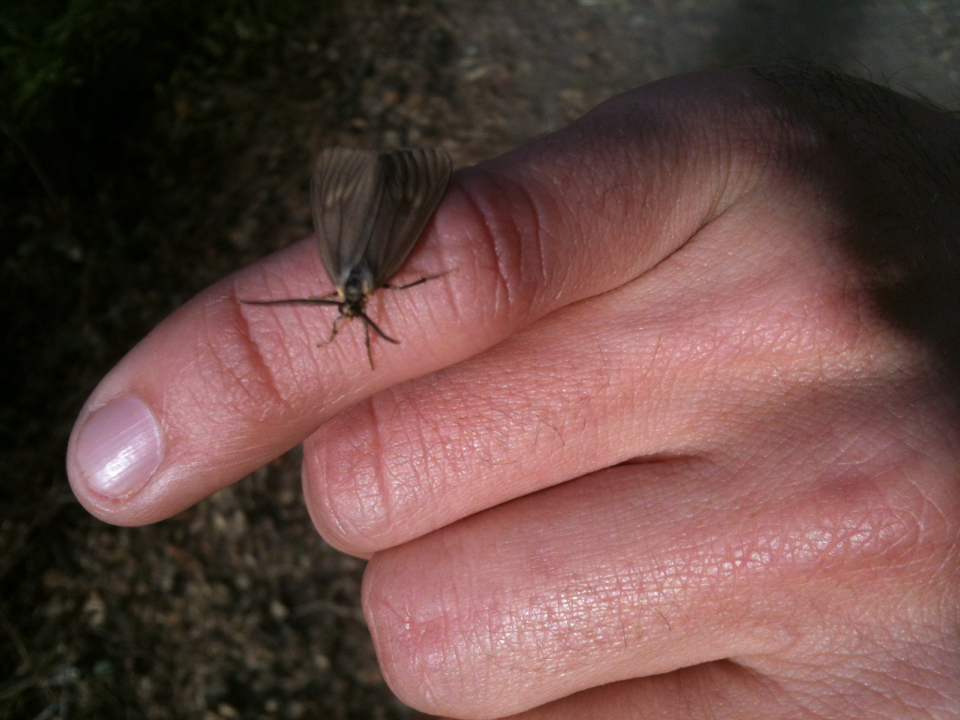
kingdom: Animalia
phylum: Arthropoda
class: Insecta
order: Lepidoptera
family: Notodontidae
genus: Phryganidia
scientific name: Phryganidia californica
